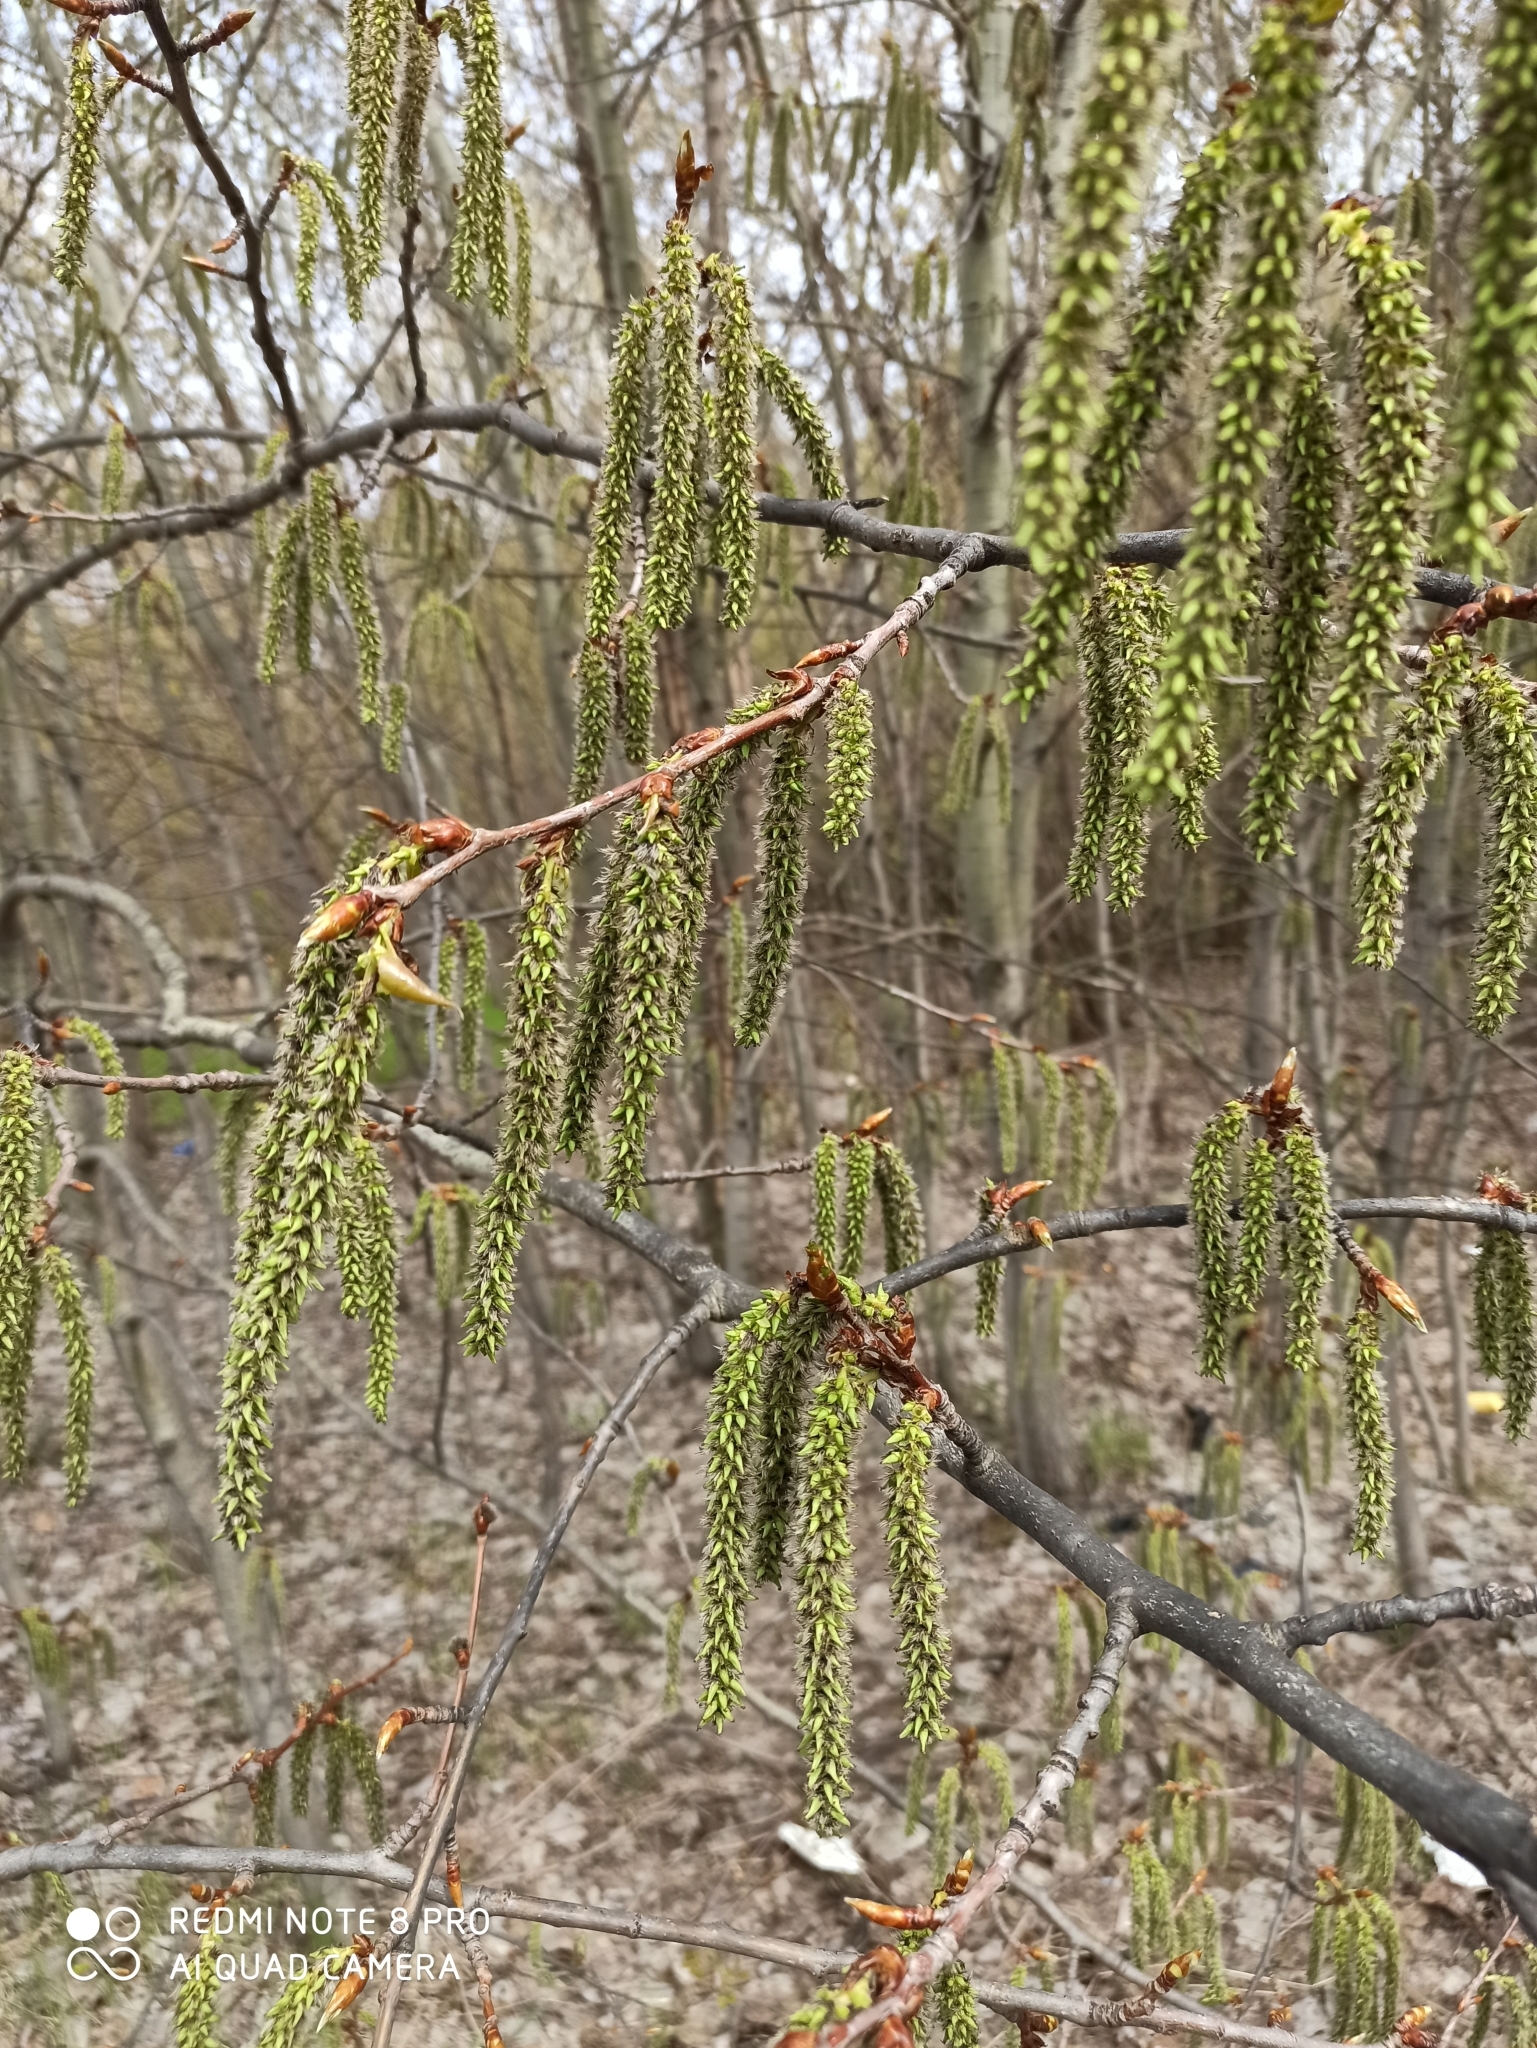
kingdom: Plantae
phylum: Tracheophyta
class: Magnoliopsida
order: Malpighiales
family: Salicaceae
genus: Populus
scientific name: Populus tremula
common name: European aspen
